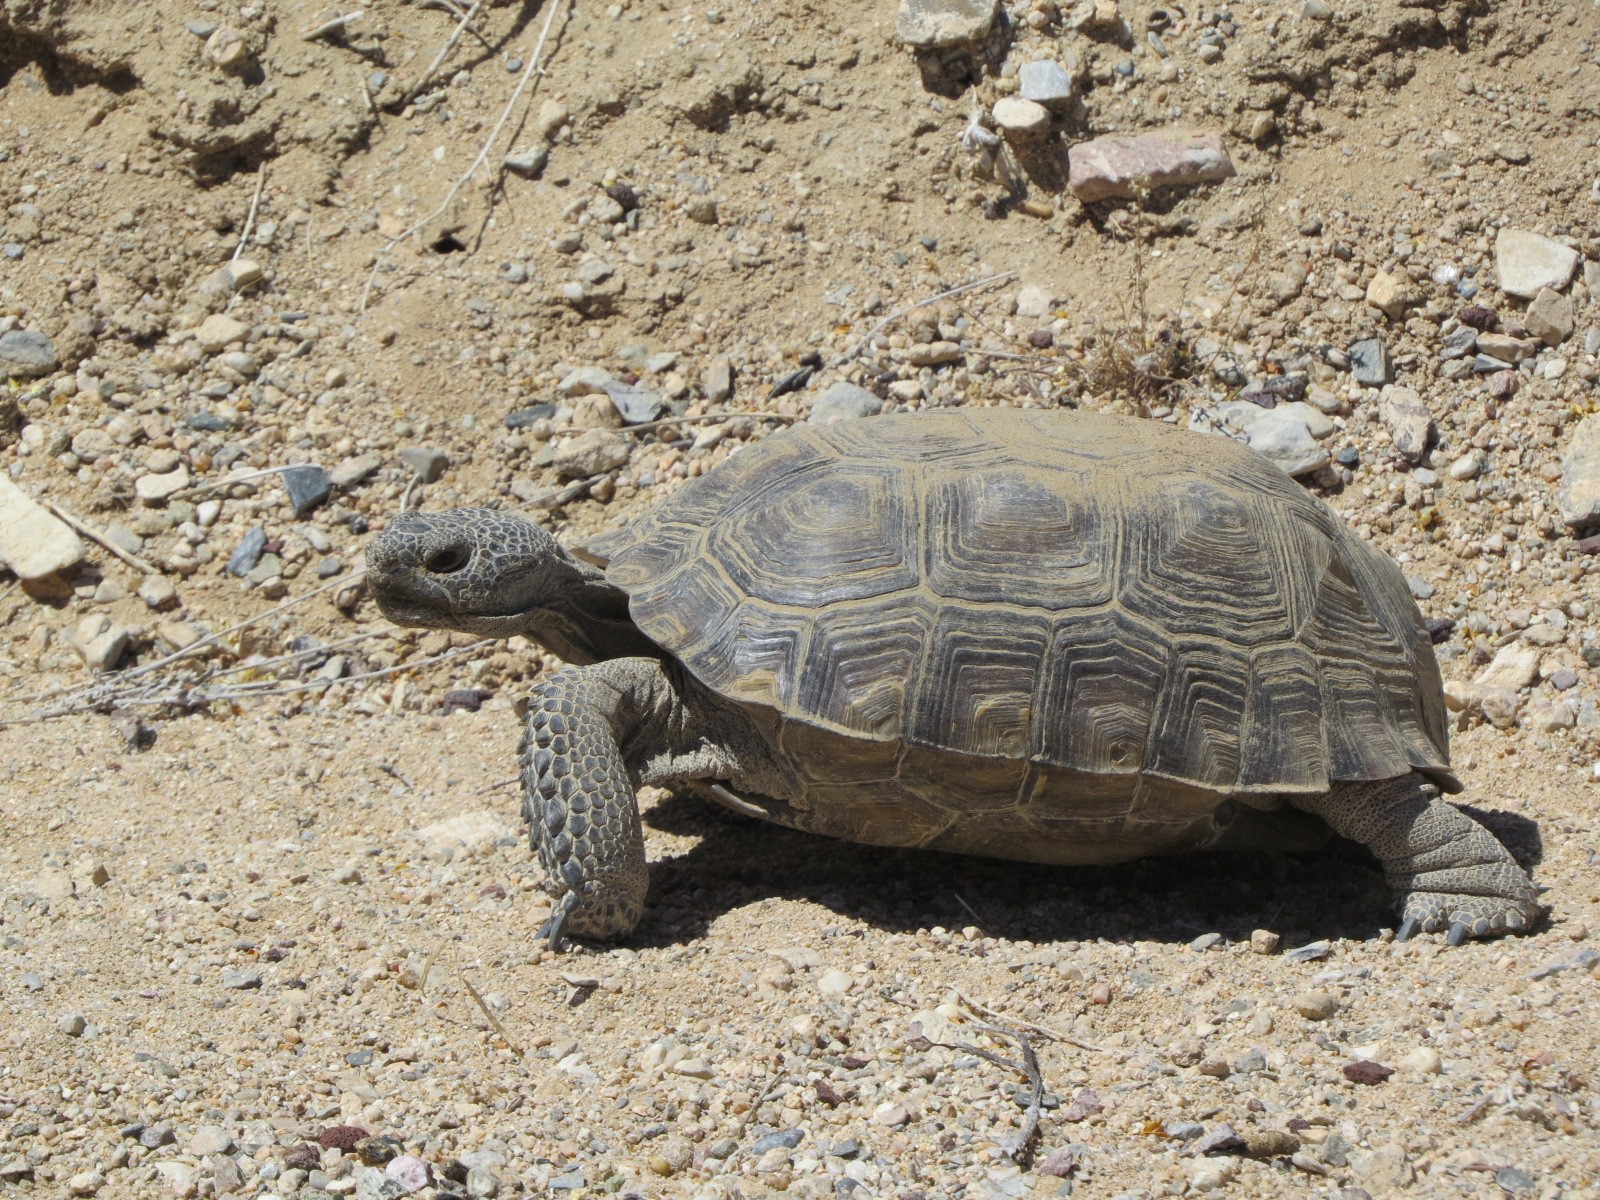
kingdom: Animalia
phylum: Chordata
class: Testudines
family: Testudinidae
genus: Gopherus
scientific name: Gopherus agassizii
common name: Mojave desert tortoise
